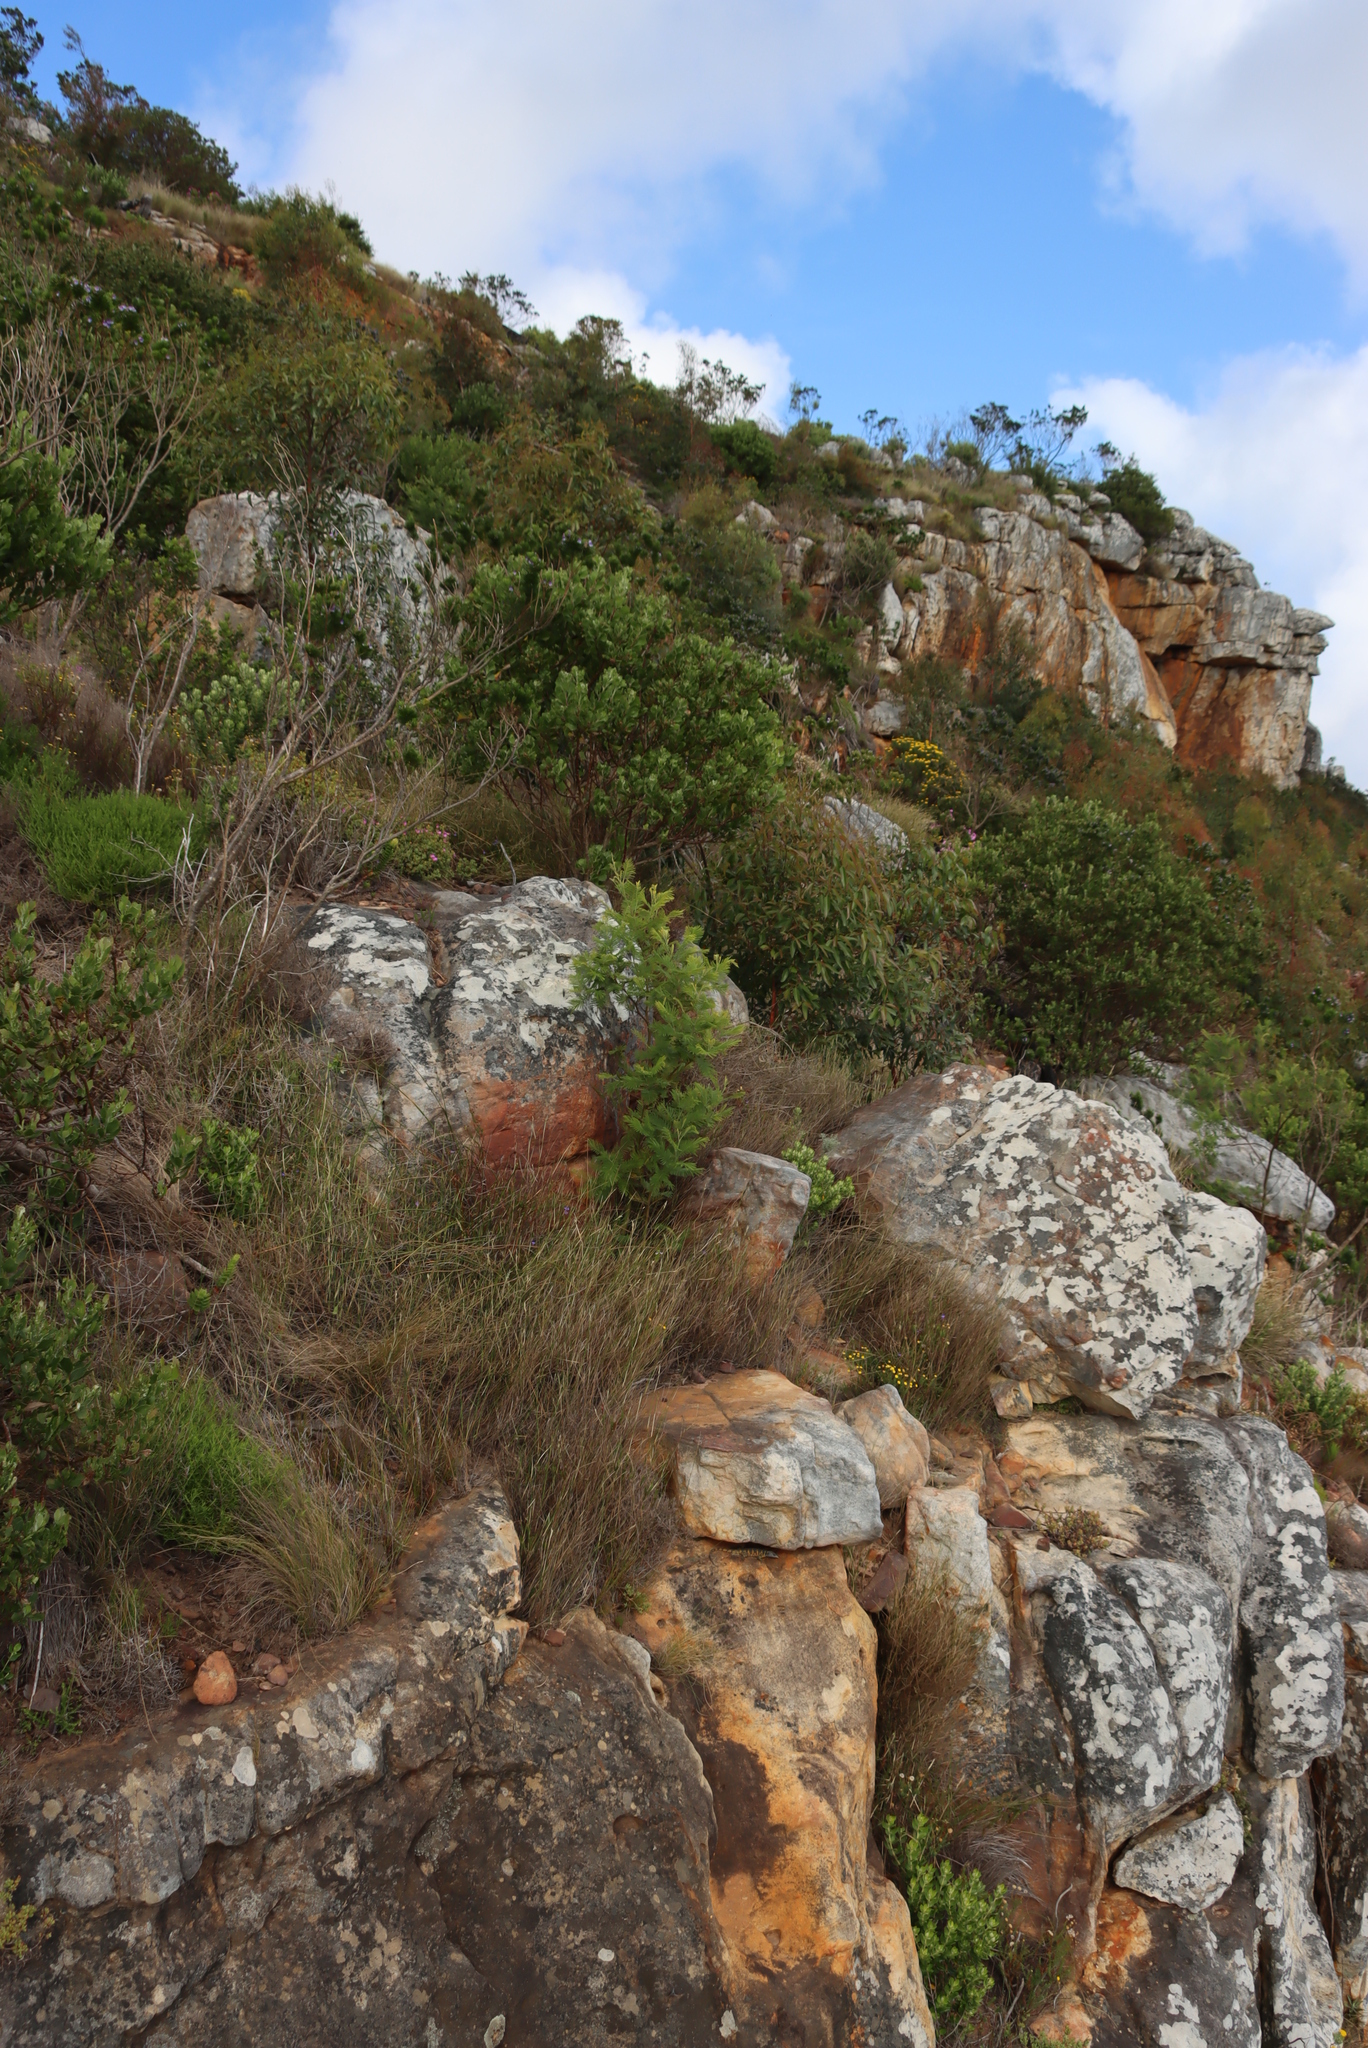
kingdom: Plantae
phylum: Tracheophyta
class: Magnoliopsida
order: Fabales
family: Fabaceae
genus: Acacia
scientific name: Acacia mearnsii
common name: Black wattle
